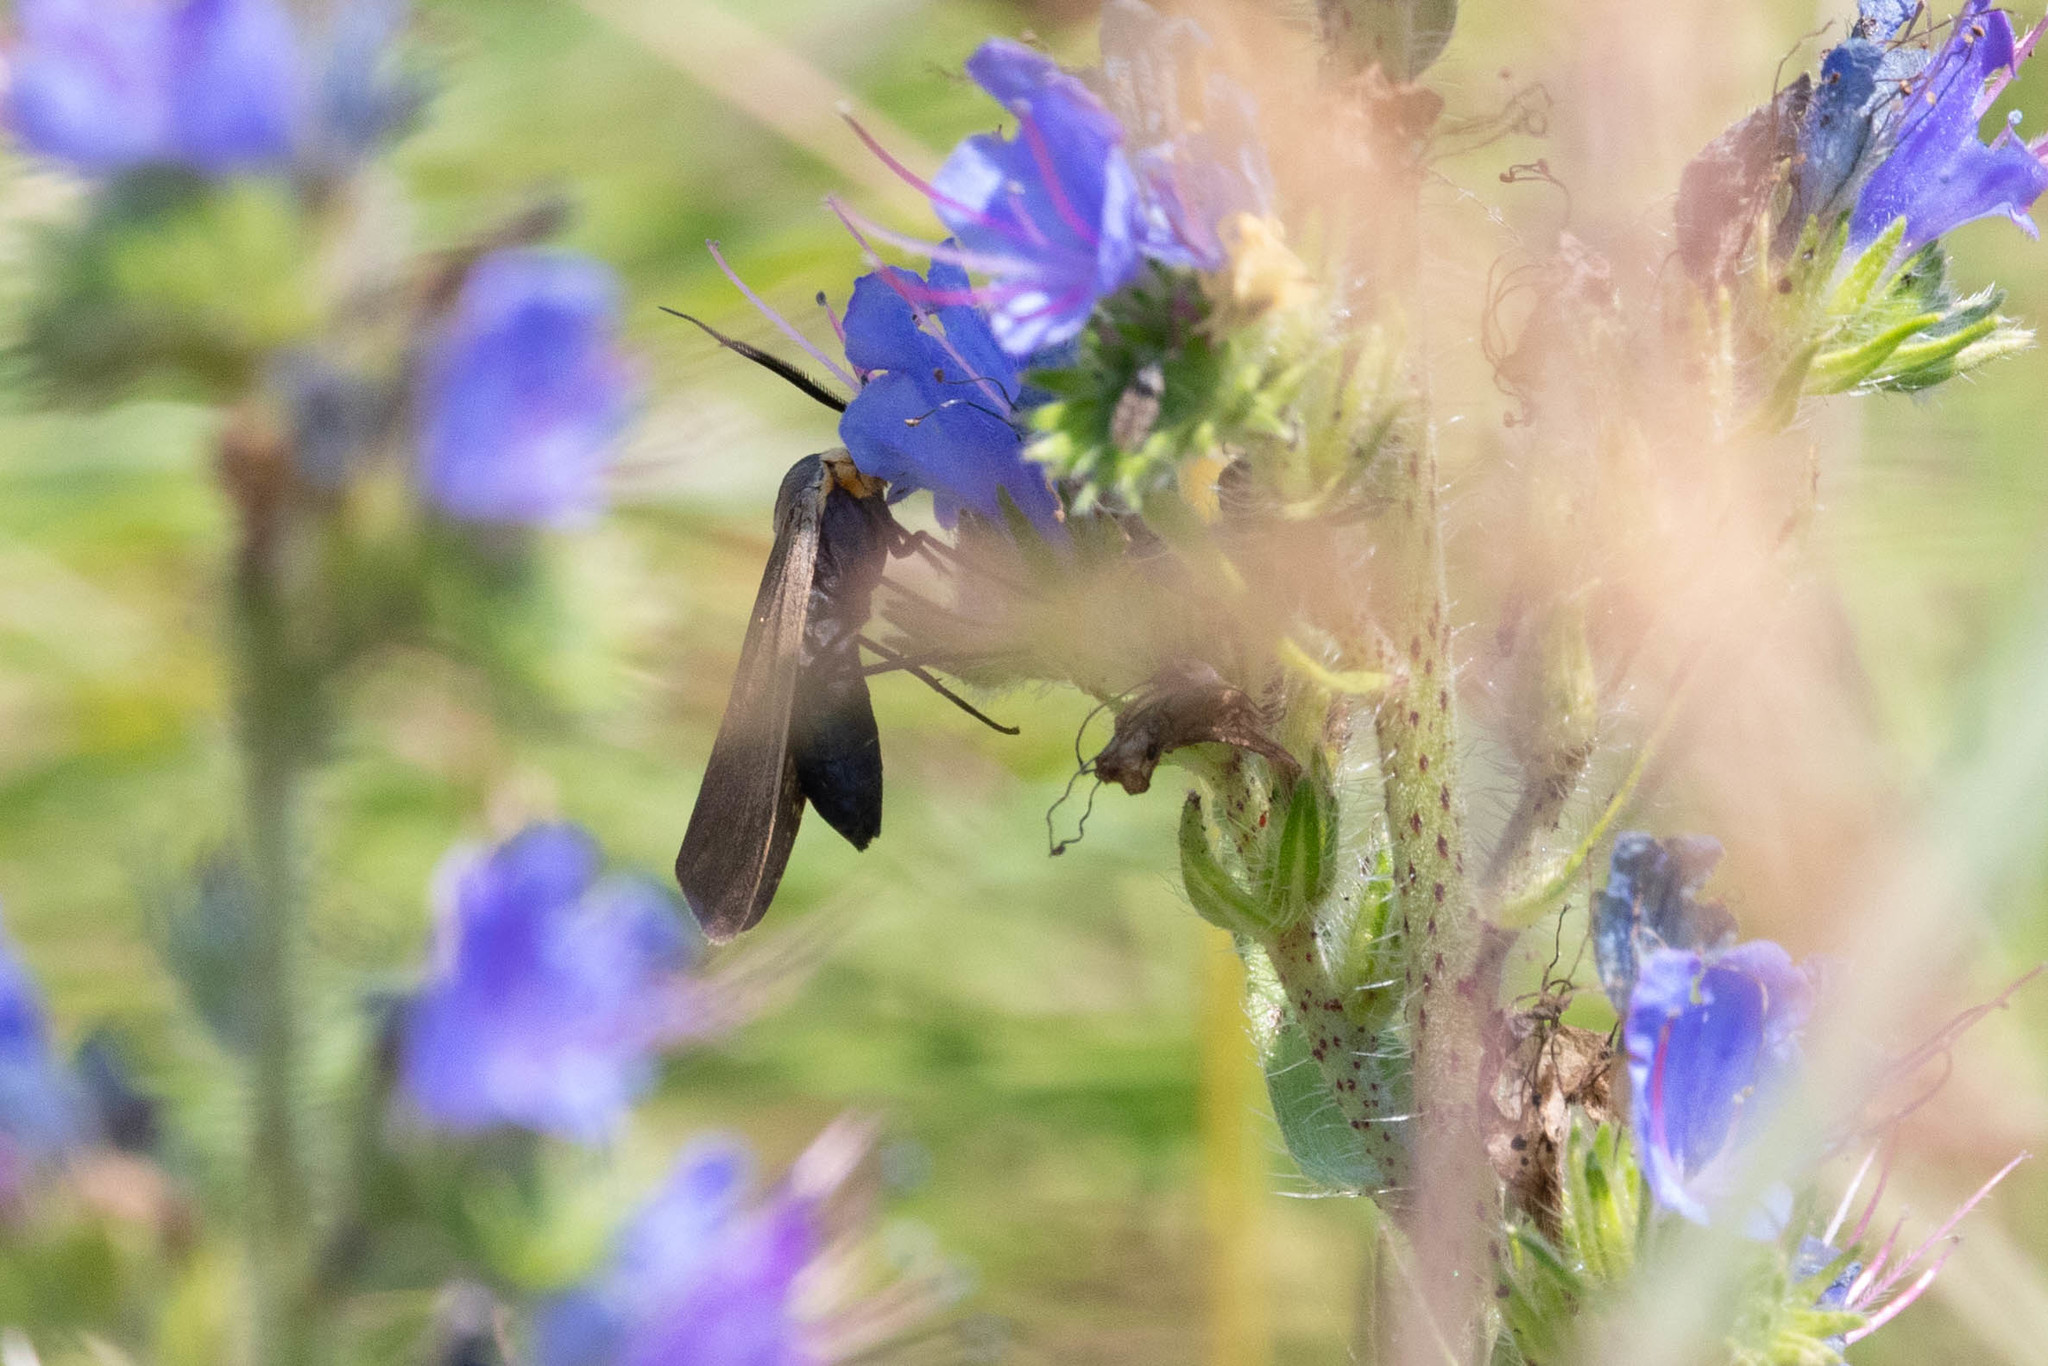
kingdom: Animalia
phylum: Arthropoda
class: Insecta
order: Lepidoptera
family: Erebidae
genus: Cisseps
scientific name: Cisseps fulvicollis
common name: Yellow-collared scape moth
